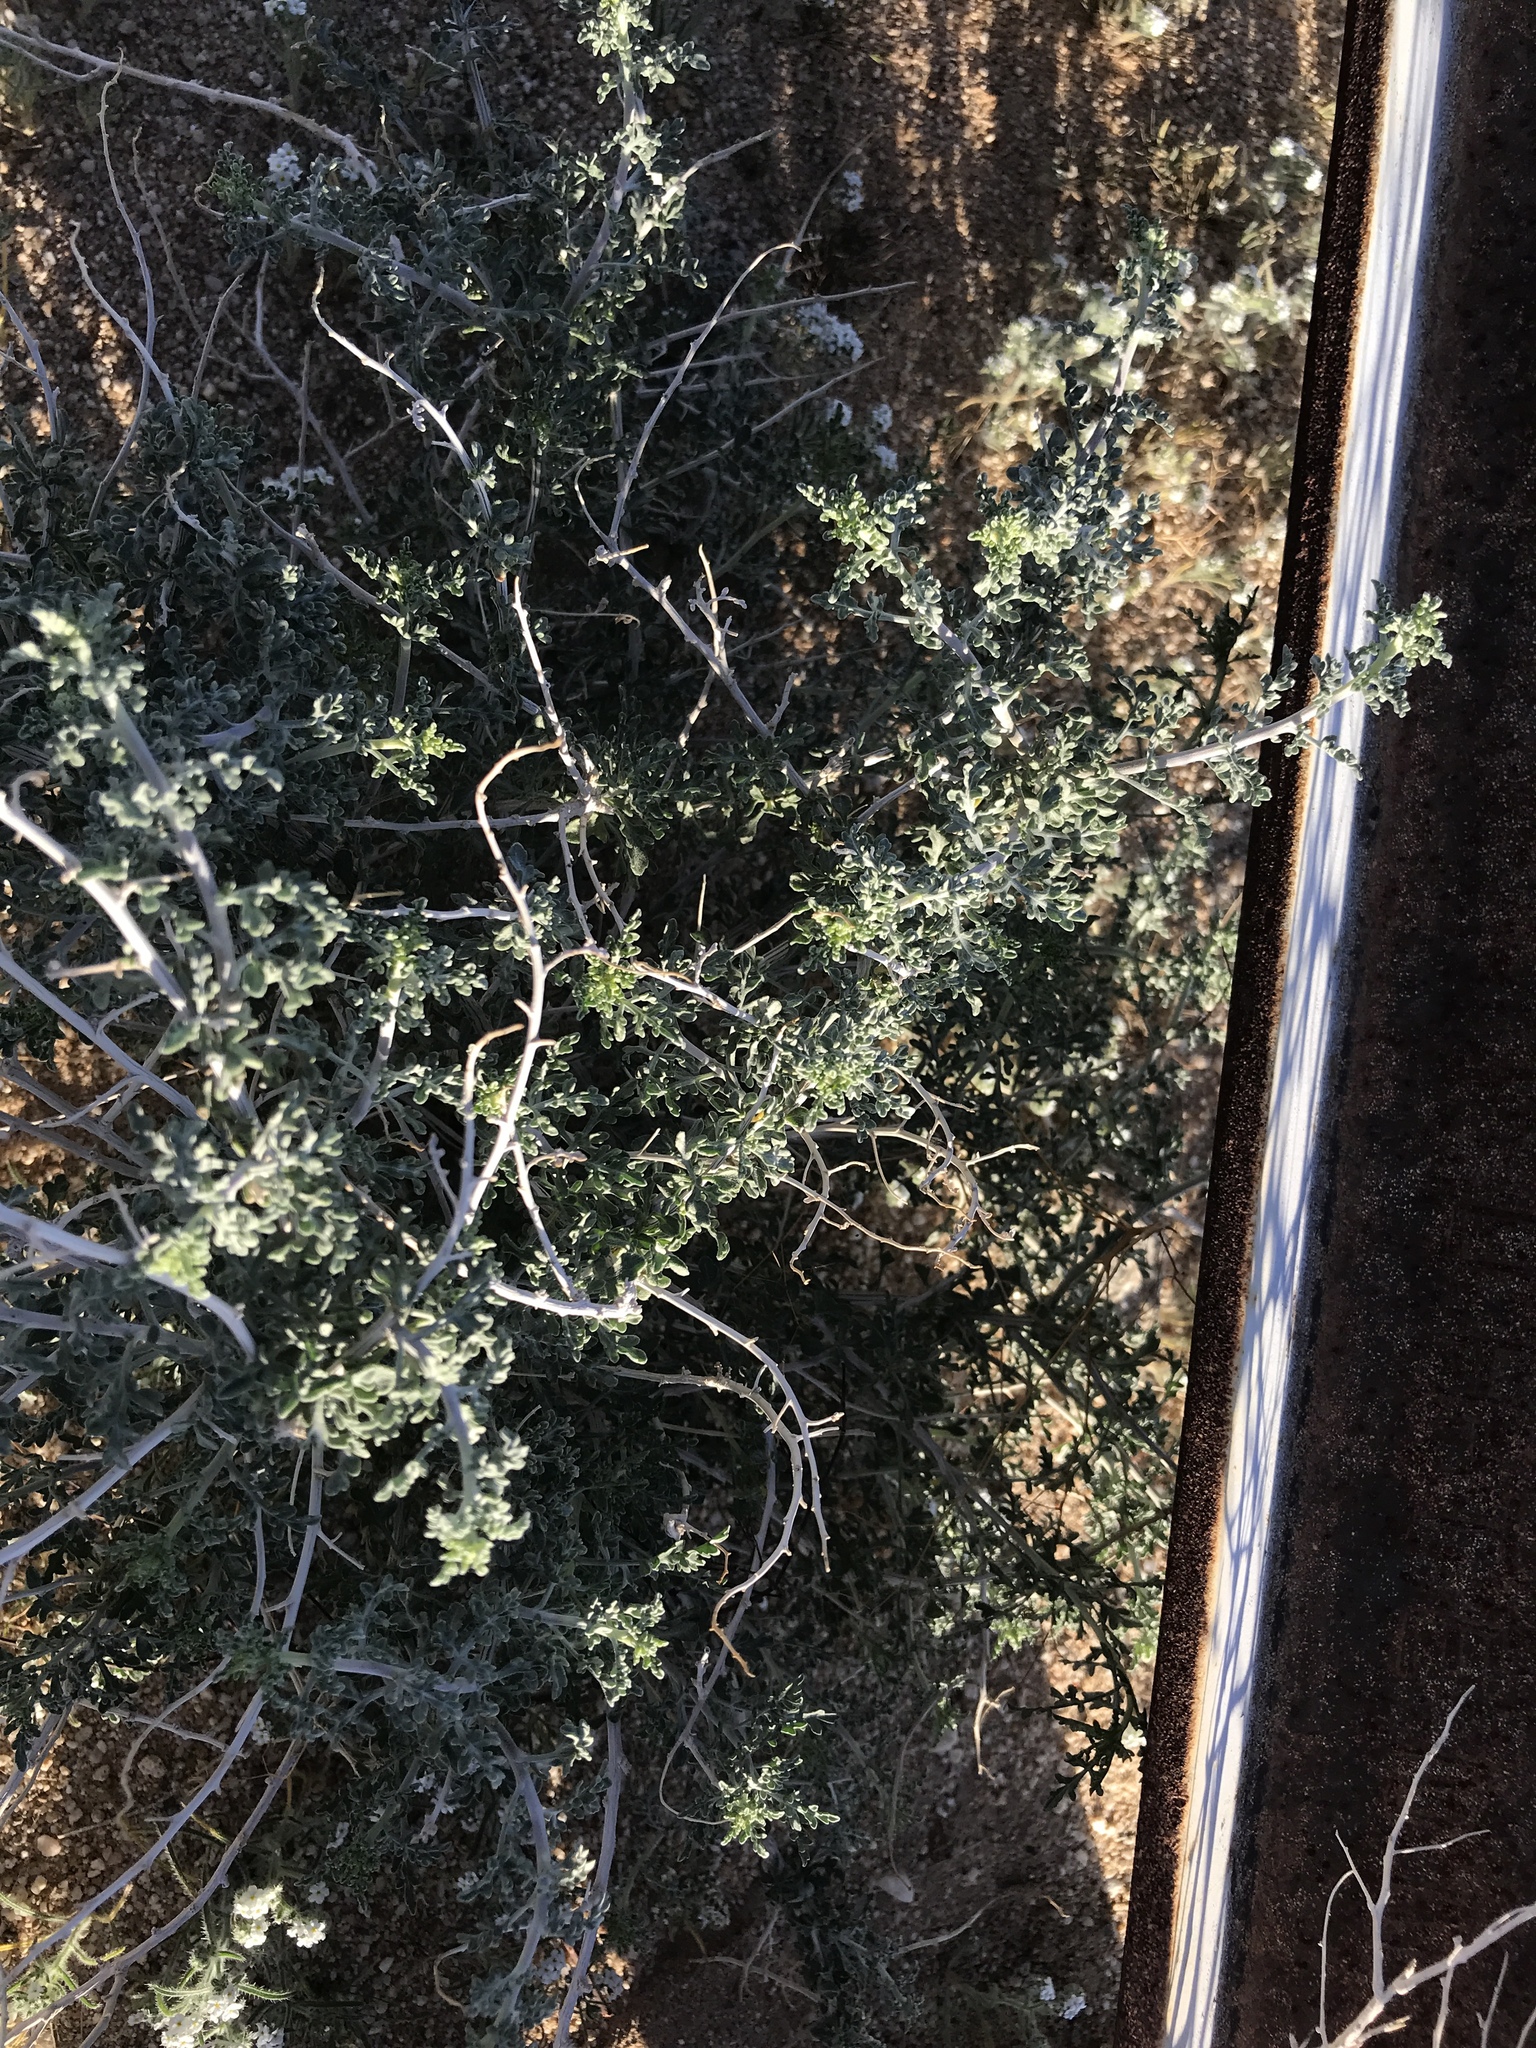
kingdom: Plantae
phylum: Tracheophyta
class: Magnoliopsida
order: Asterales
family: Asteraceae
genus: Ambrosia
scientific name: Ambrosia dumosa
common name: Bur-sage
